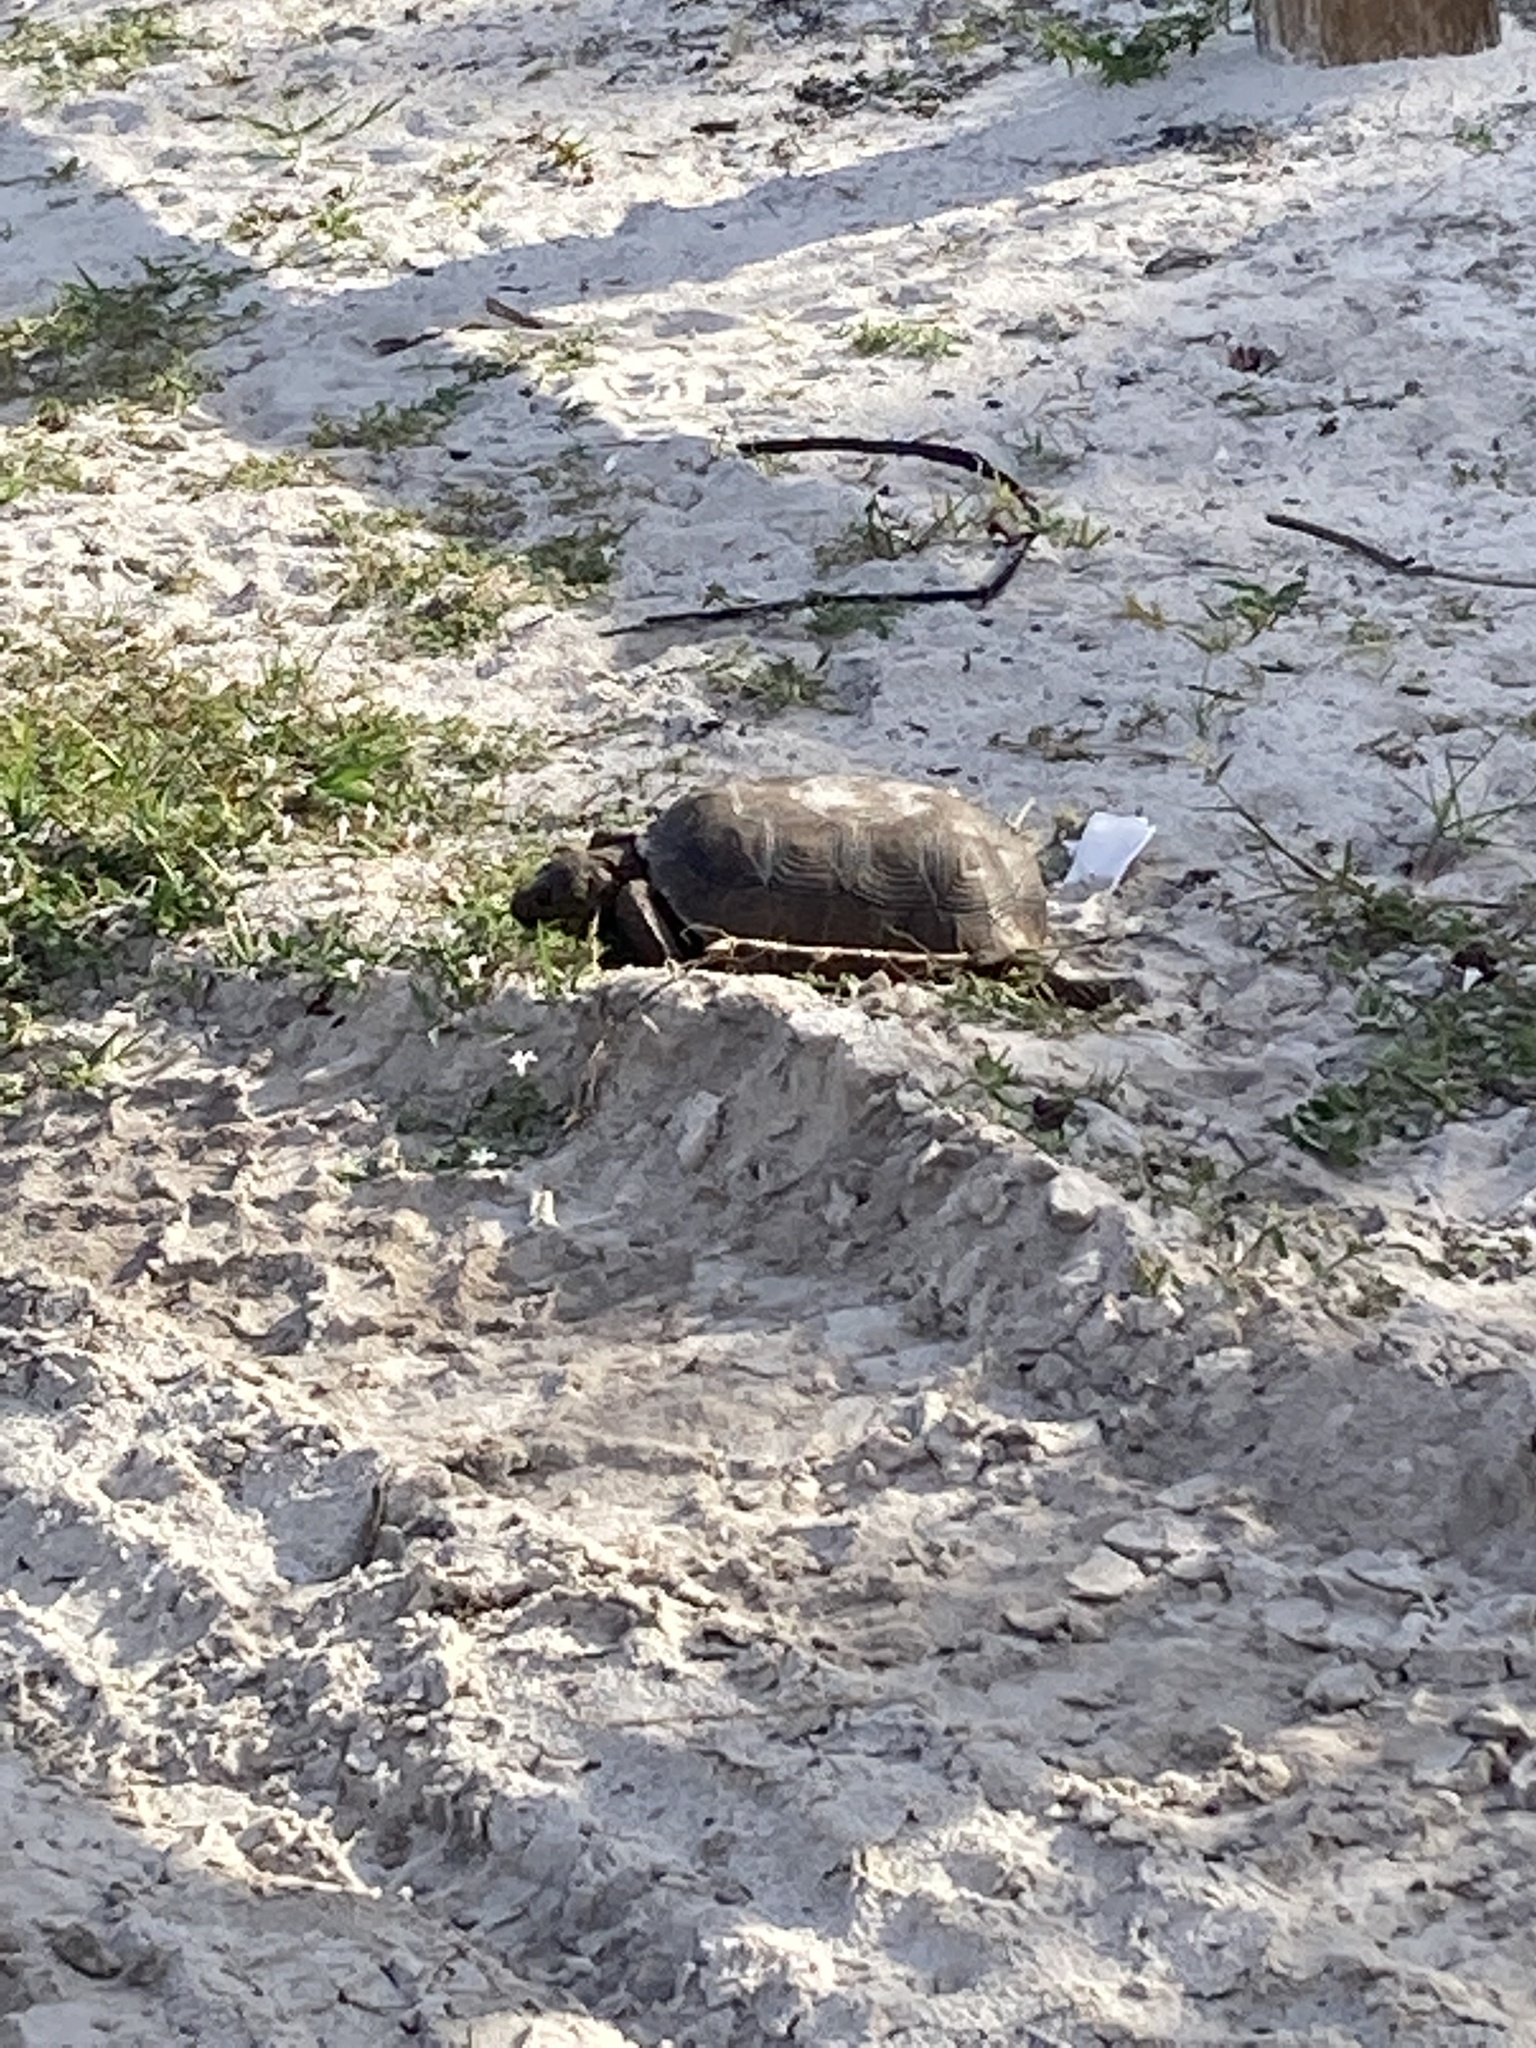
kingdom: Animalia
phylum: Chordata
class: Testudines
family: Testudinidae
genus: Gopherus
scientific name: Gopherus polyphemus
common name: Florida gopher tortoise
